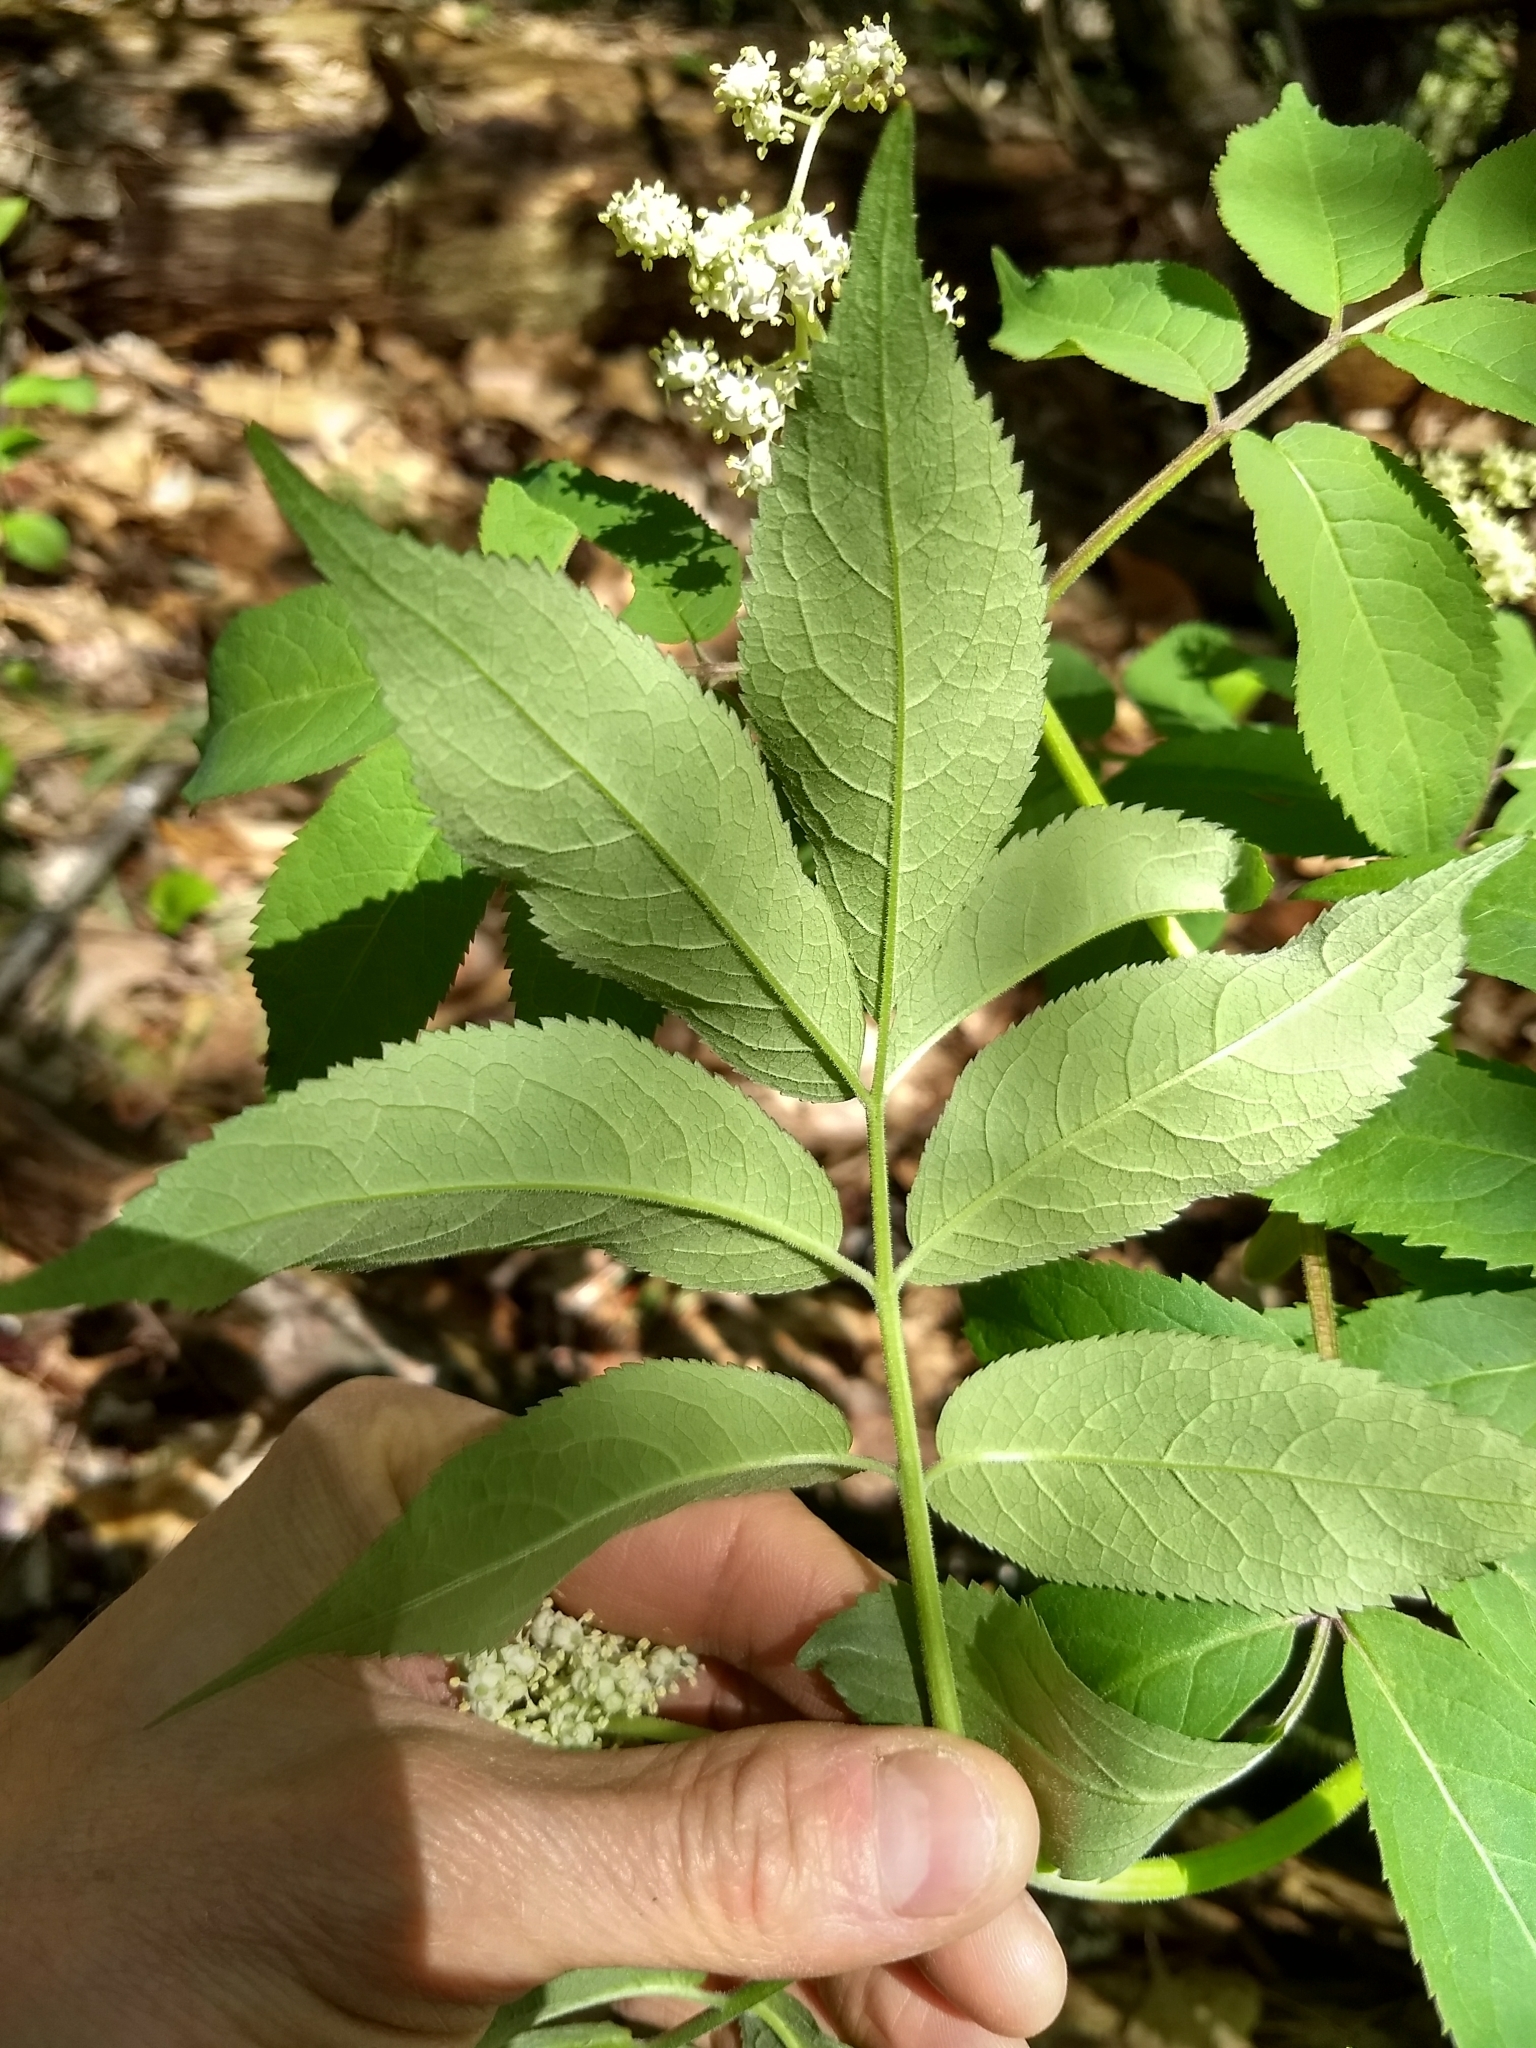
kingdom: Plantae
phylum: Tracheophyta
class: Magnoliopsida
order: Dipsacales
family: Viburnaceae
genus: Sambucus
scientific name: Sambucus racemosa
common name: Red-berried elder
